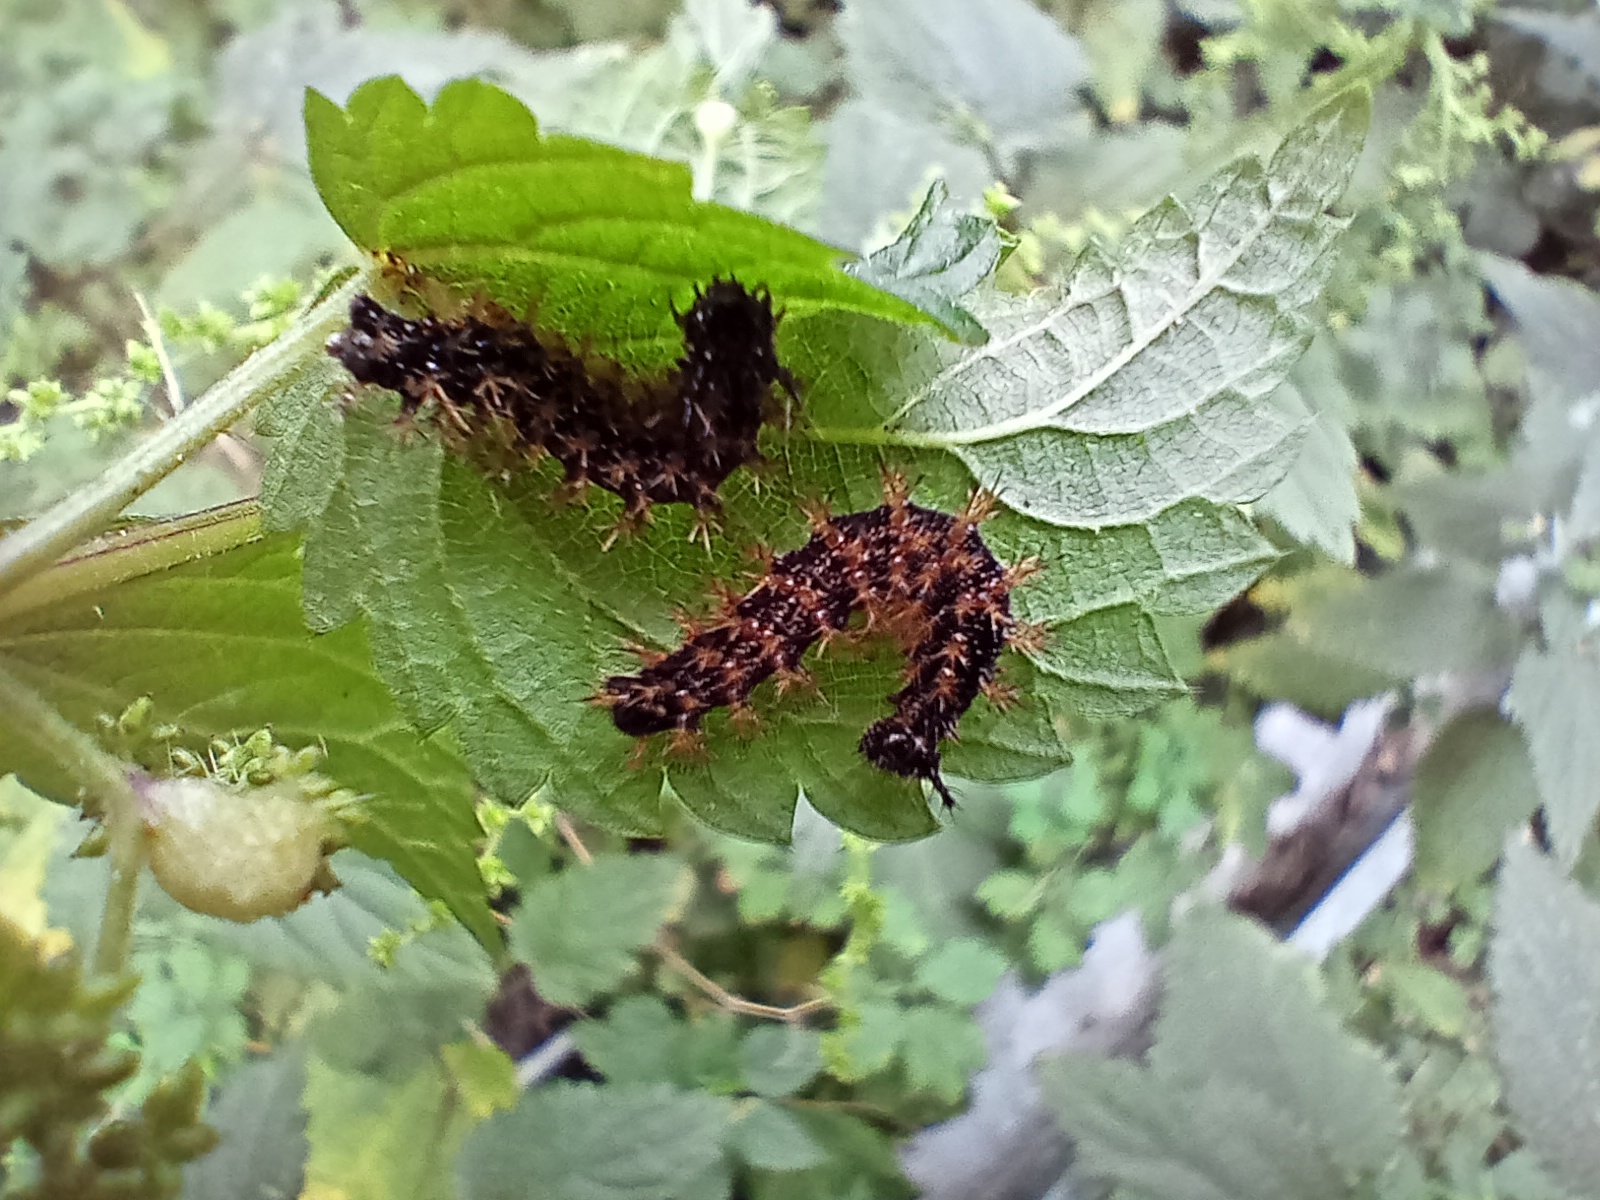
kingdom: Animalia
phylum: Arthropoda
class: Insecta
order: Lepidoptera
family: Nymphalidae
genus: Araschnia
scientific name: Araschnia levana
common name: Map butterfly
